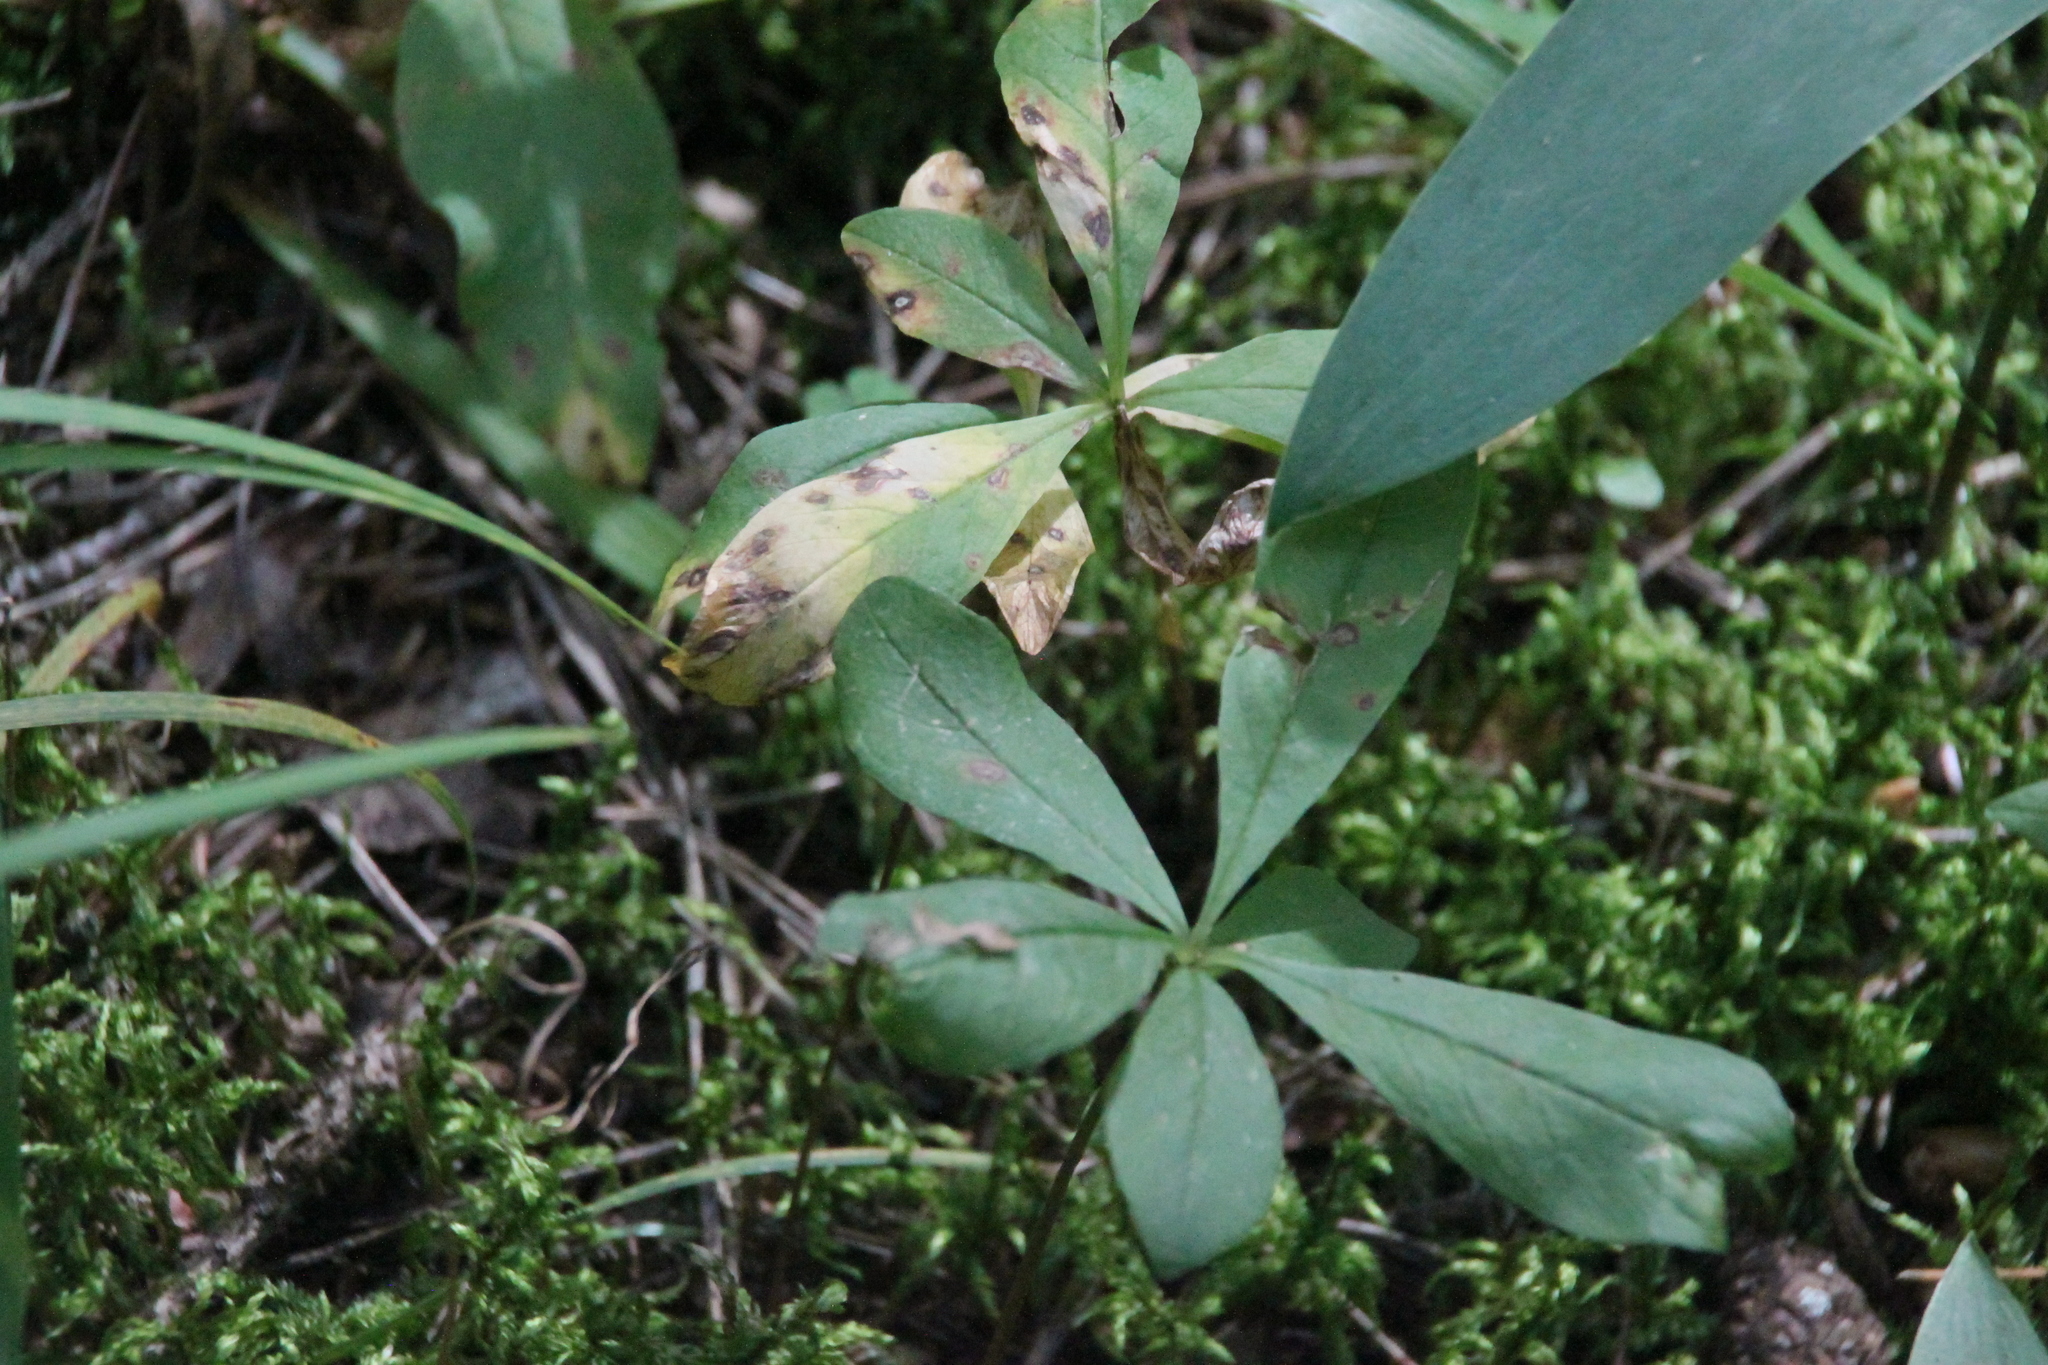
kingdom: Plantae
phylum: Tracheophyta
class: Magnoliopsida
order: Ericales
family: Primulaceae
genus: Lysimachia
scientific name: Lysimachia europaea
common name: Arctic starflower
